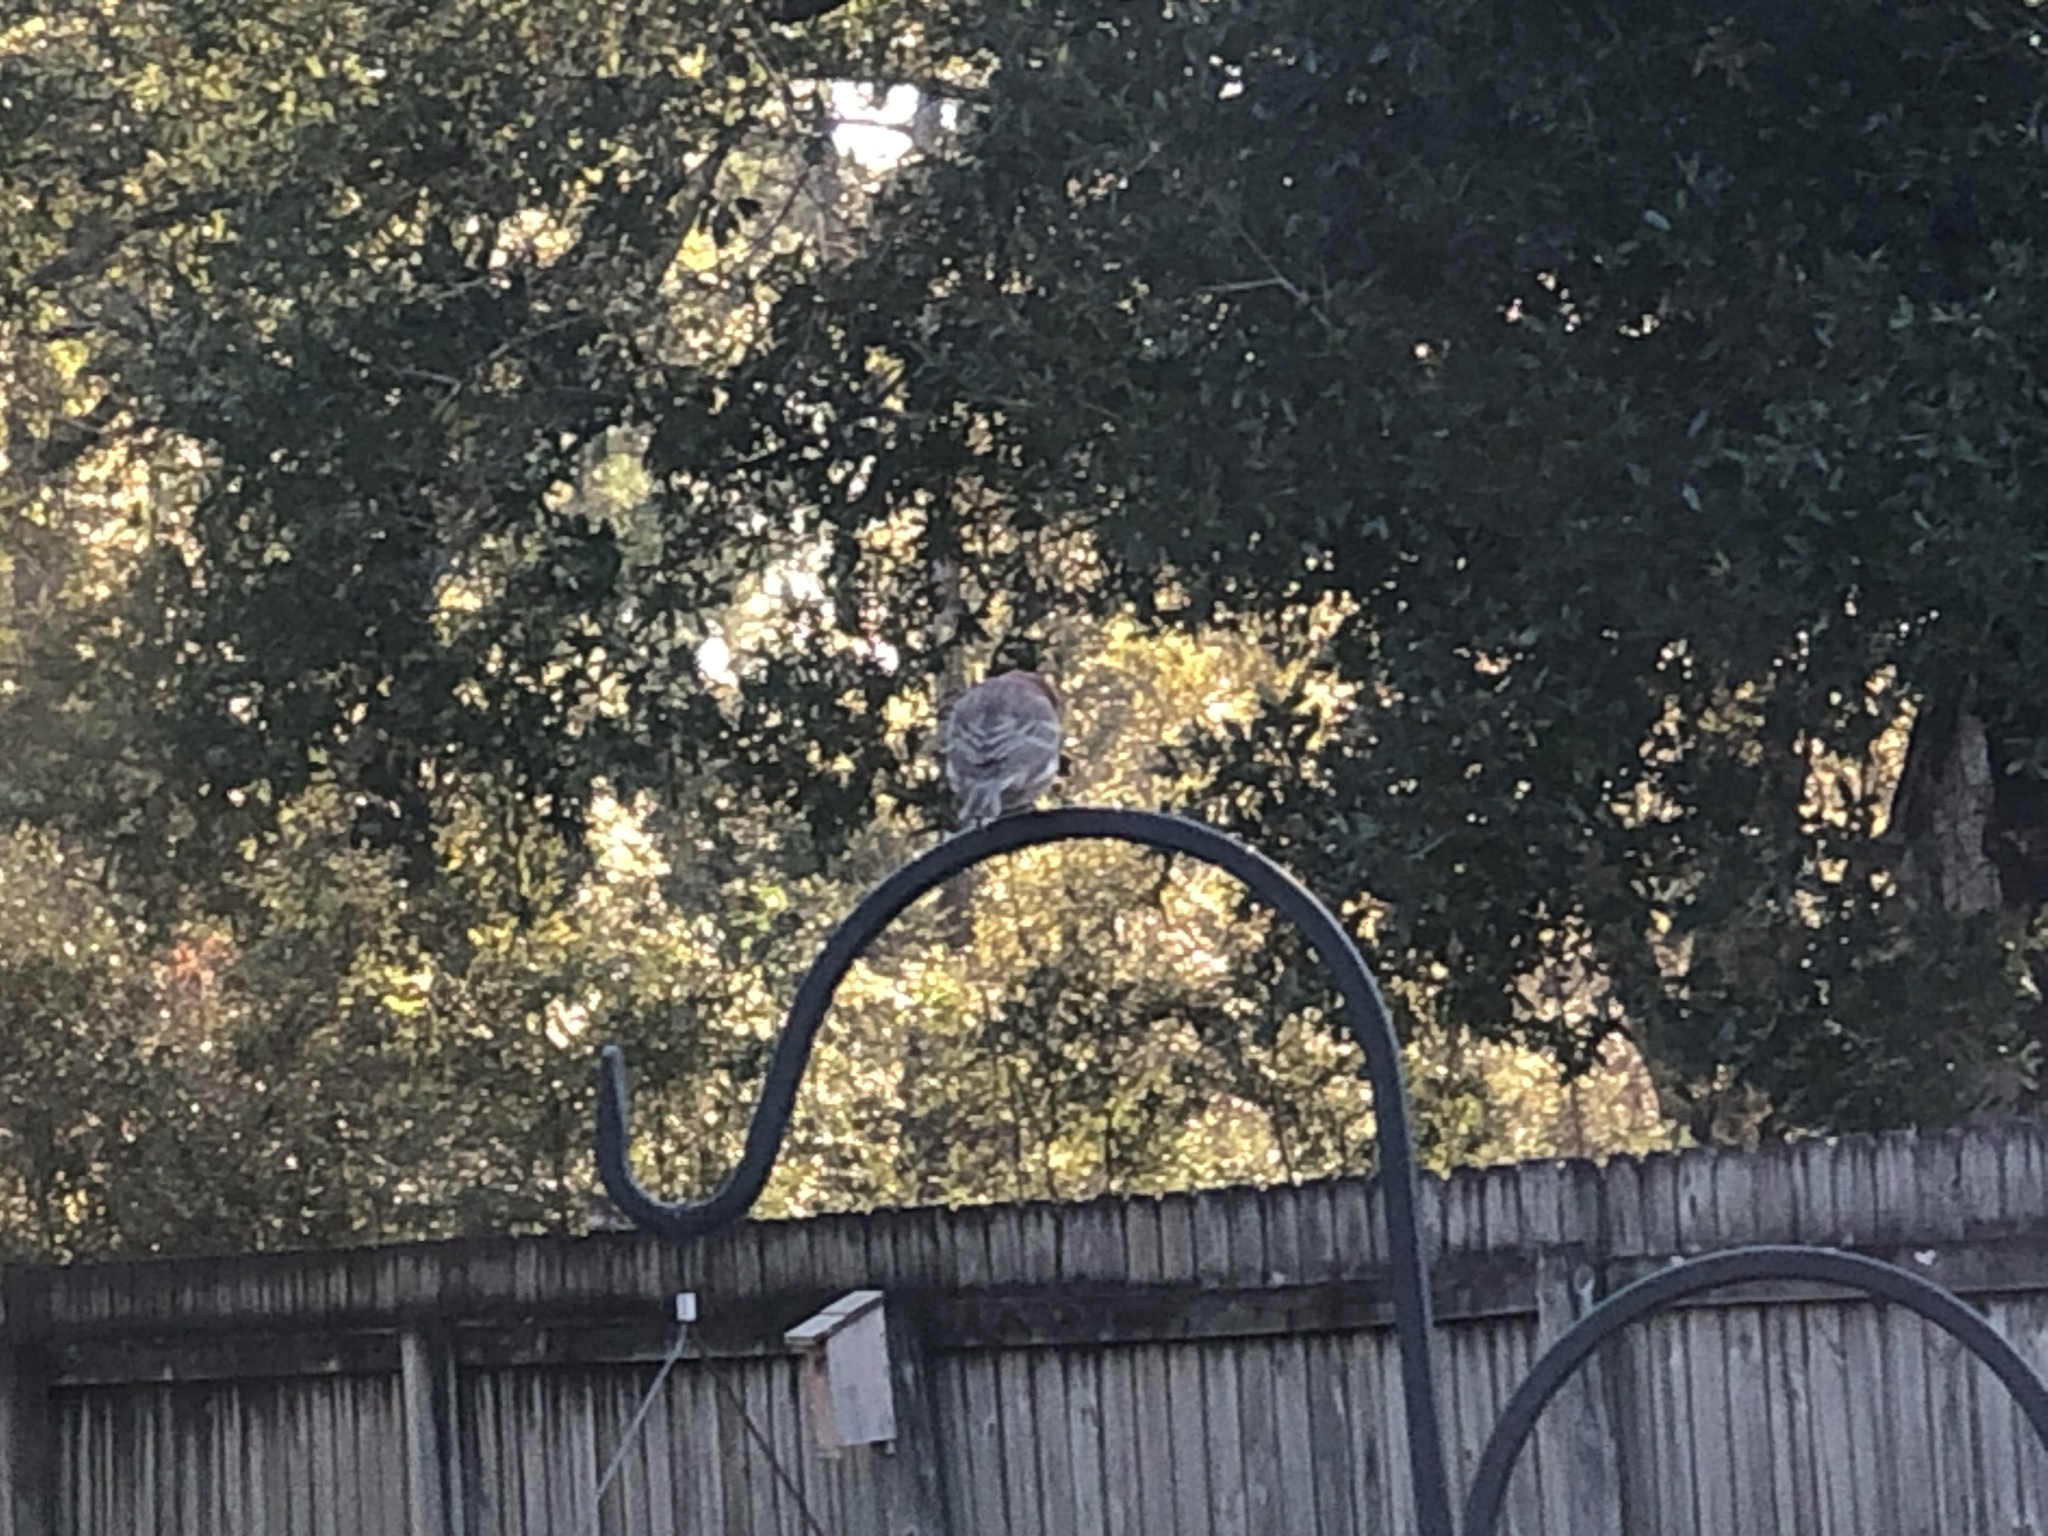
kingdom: Animalia
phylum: Chordata
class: Aves
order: Passeriformes
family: Fringillidae
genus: Haemorhous
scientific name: Haemorhous mexicanus
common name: House finch
